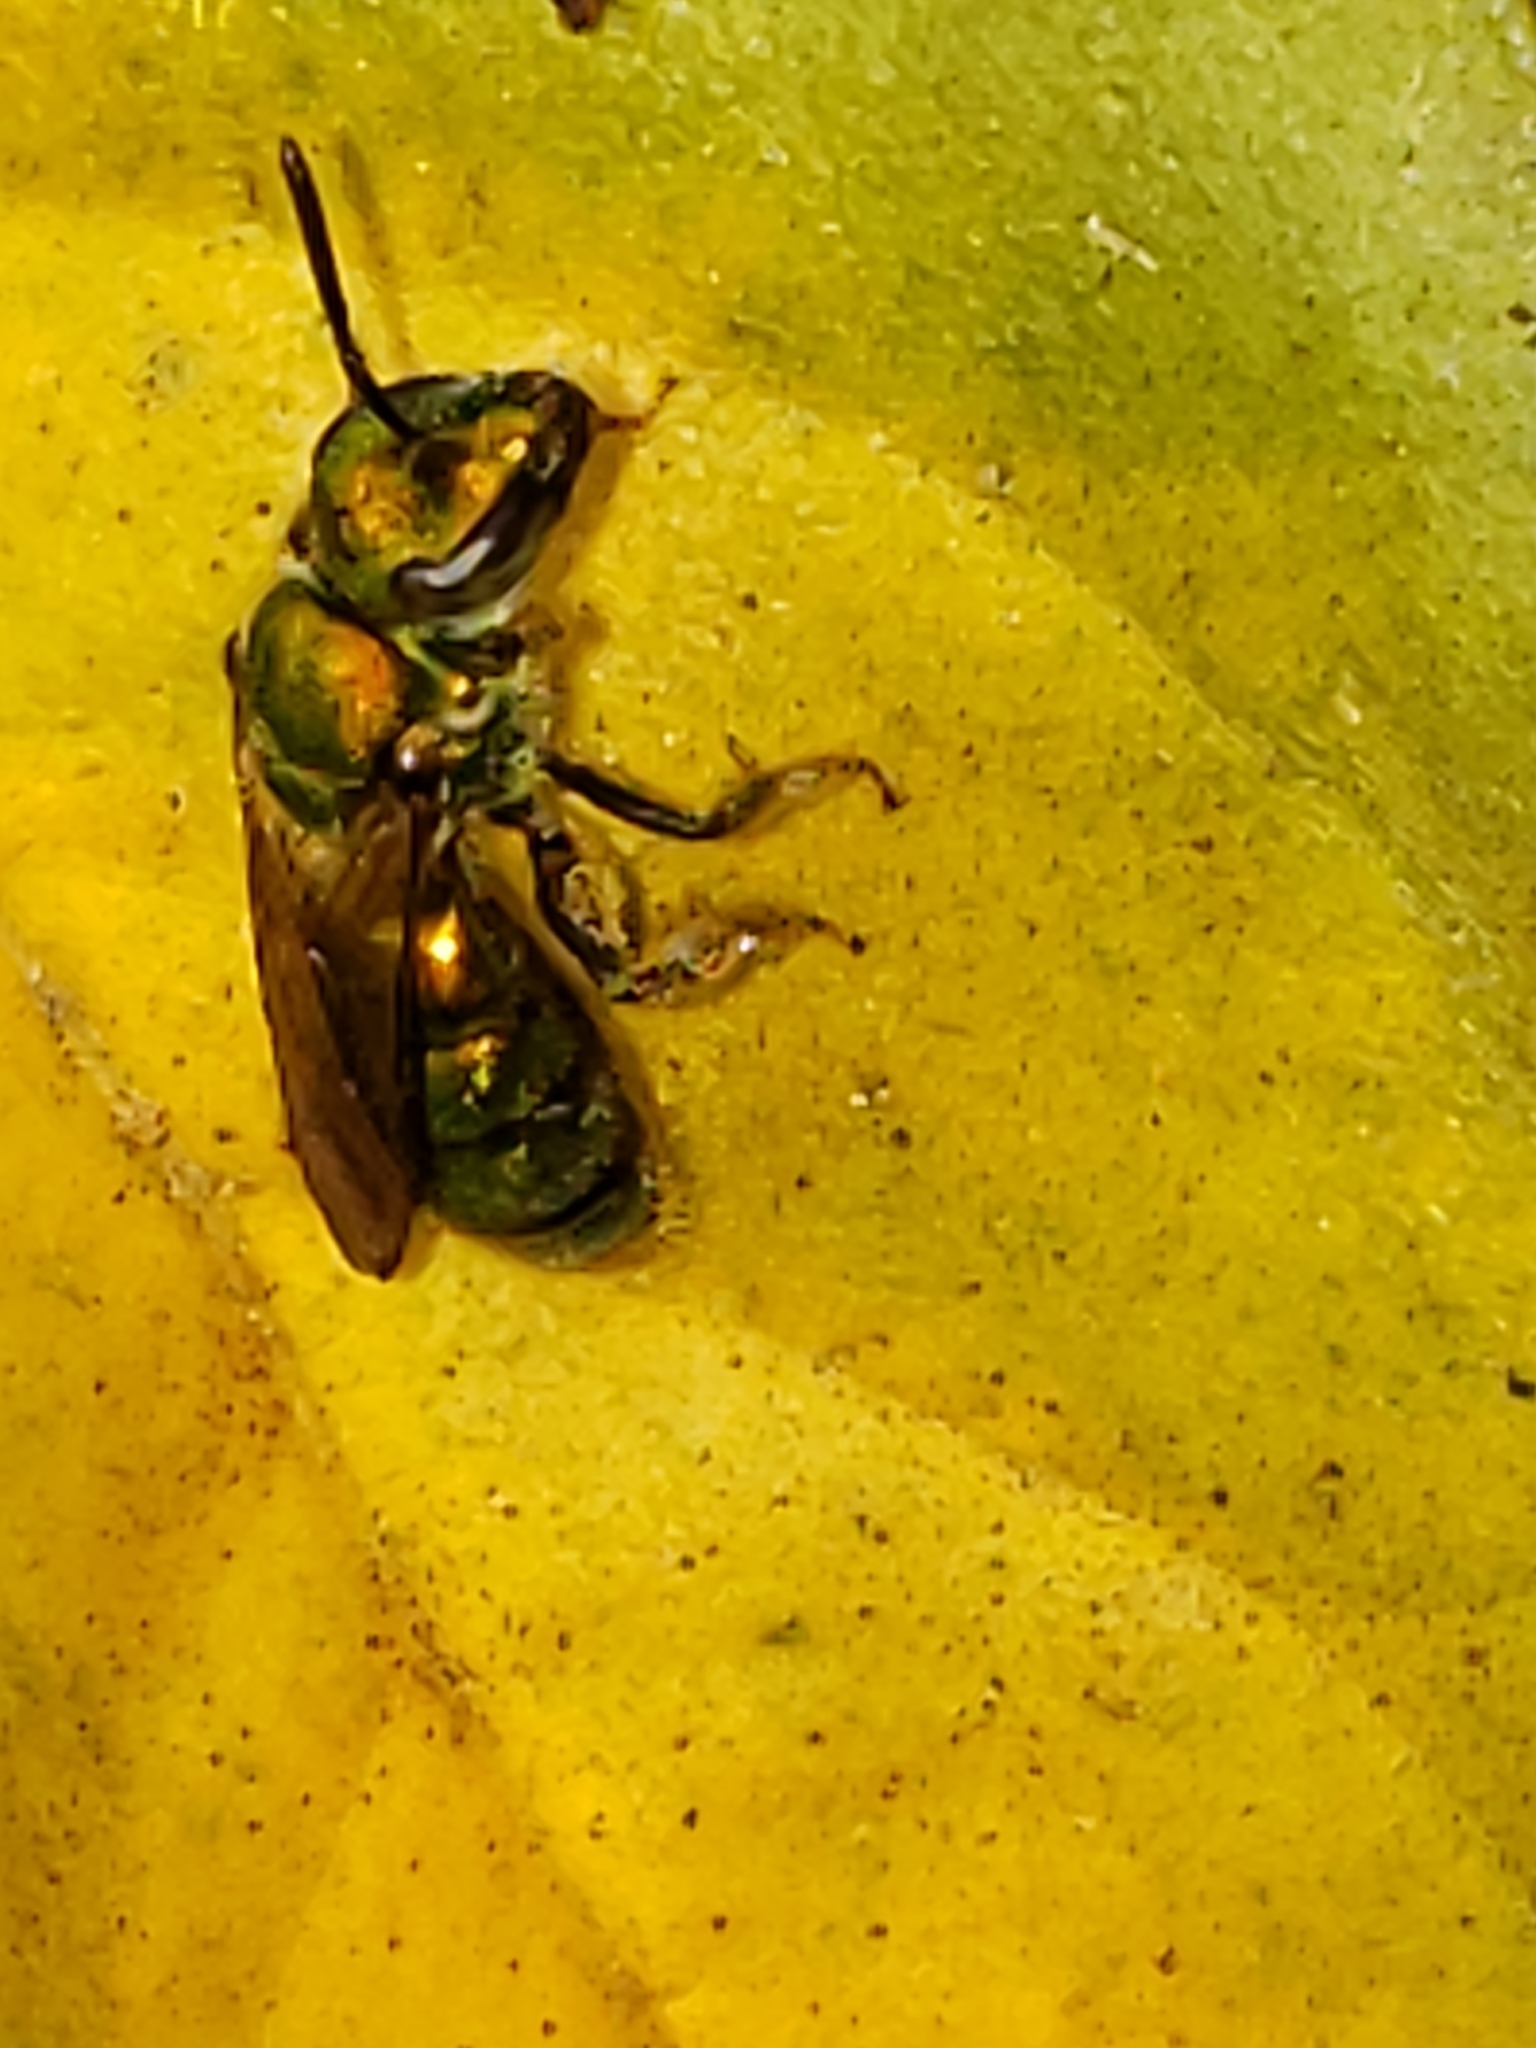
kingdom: Animalia
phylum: Arthropoda
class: Insecta
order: Hymenoptera
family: Halictidae
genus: Augochlora
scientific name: Augochlora pura
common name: Pure green sweat bee
